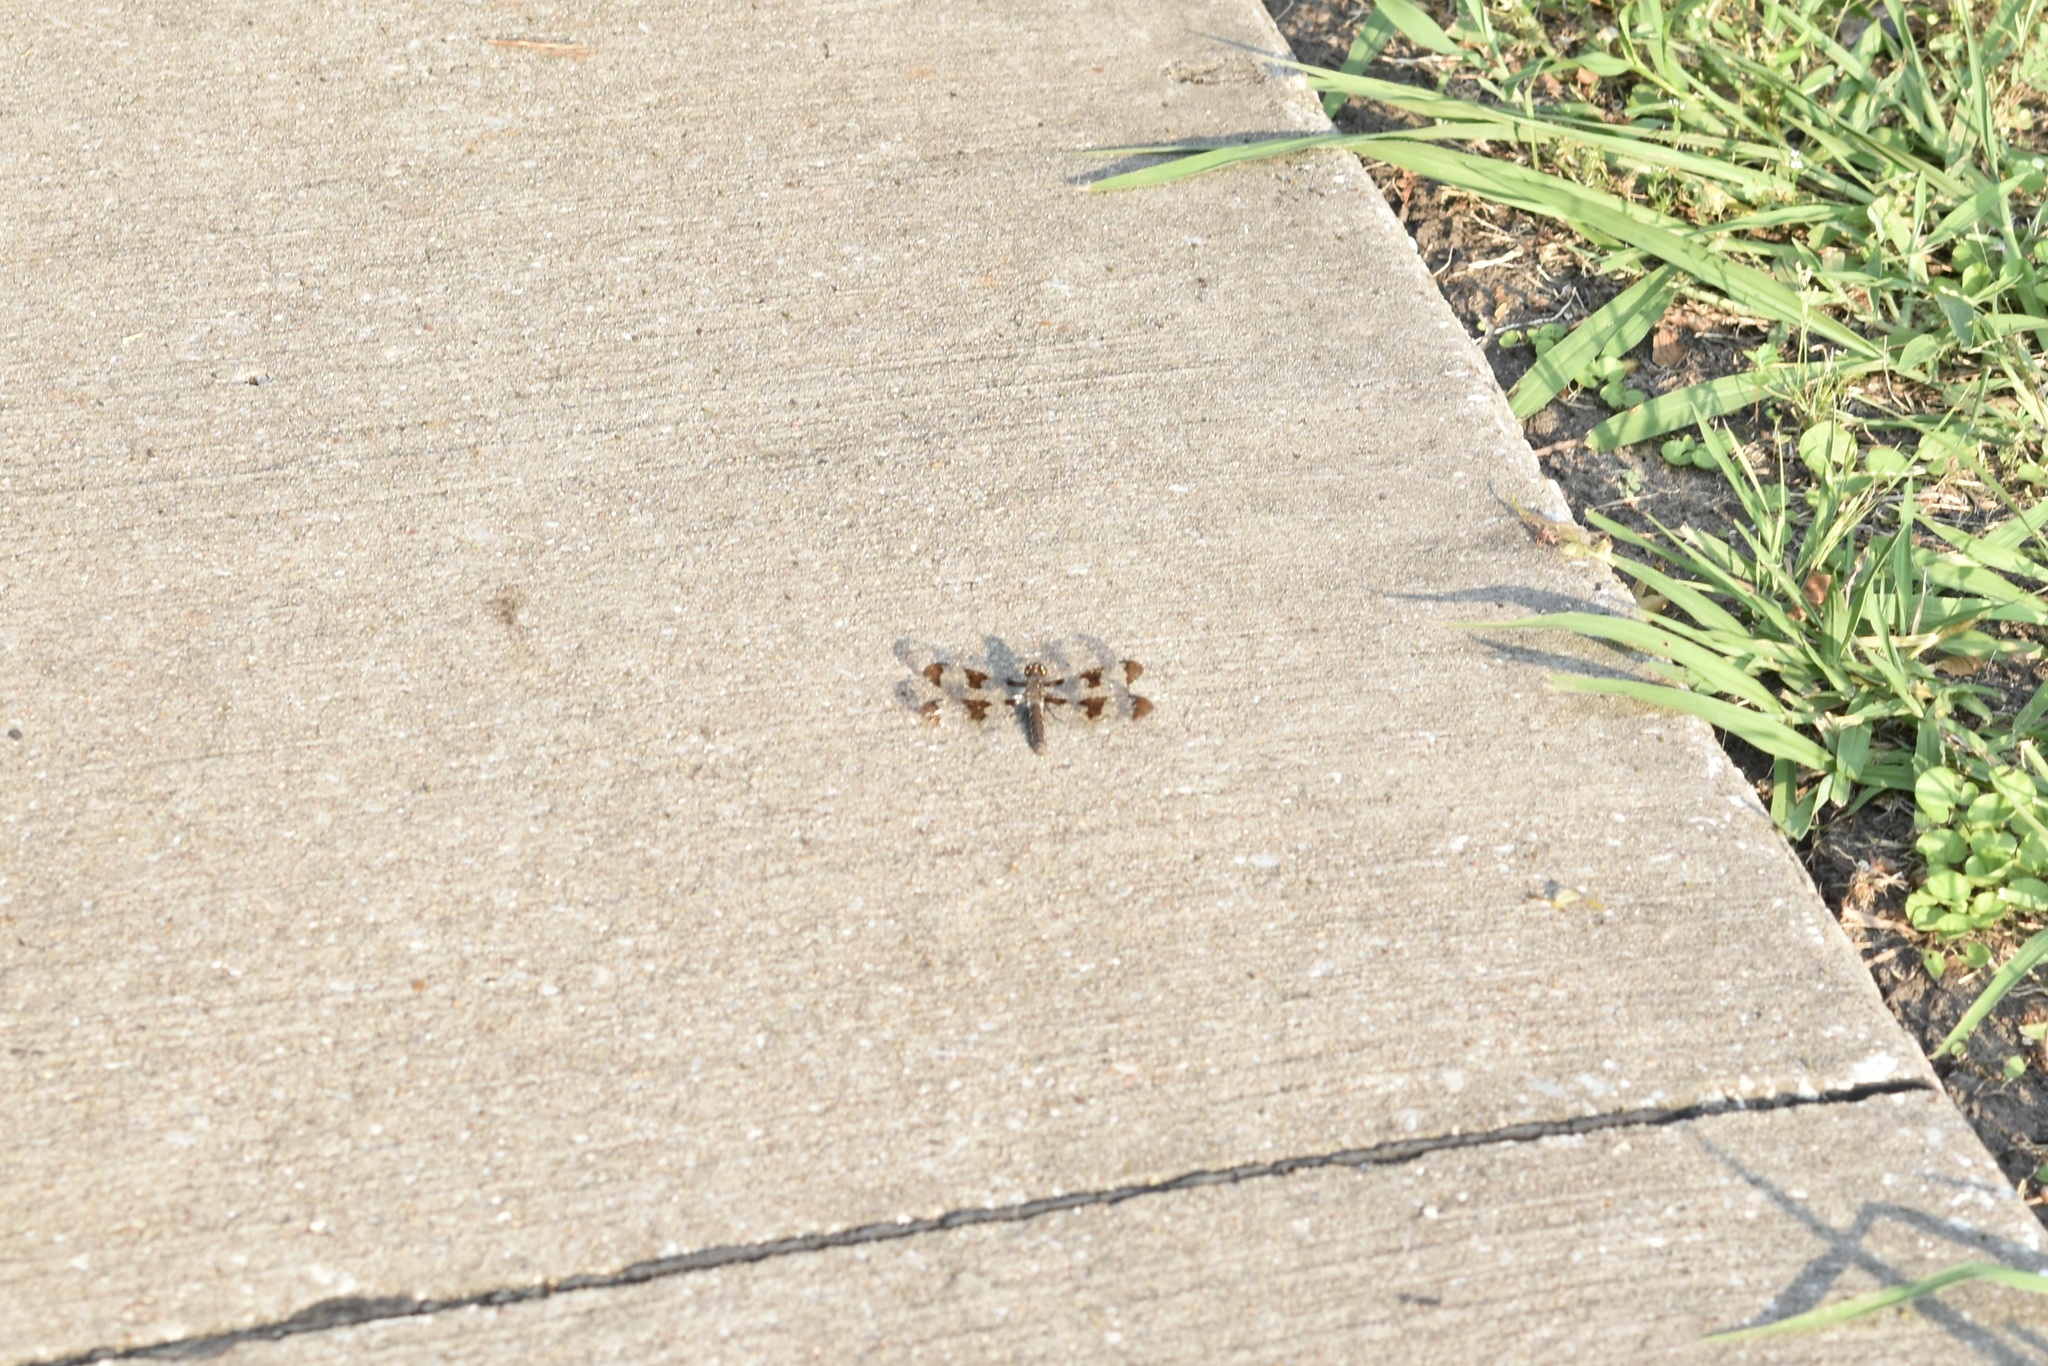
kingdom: Animalia
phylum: Arthropoda
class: Insecta
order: Odonata
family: Libellulidae
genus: Plathemis
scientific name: Plathemis lydia
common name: Common whitetail
